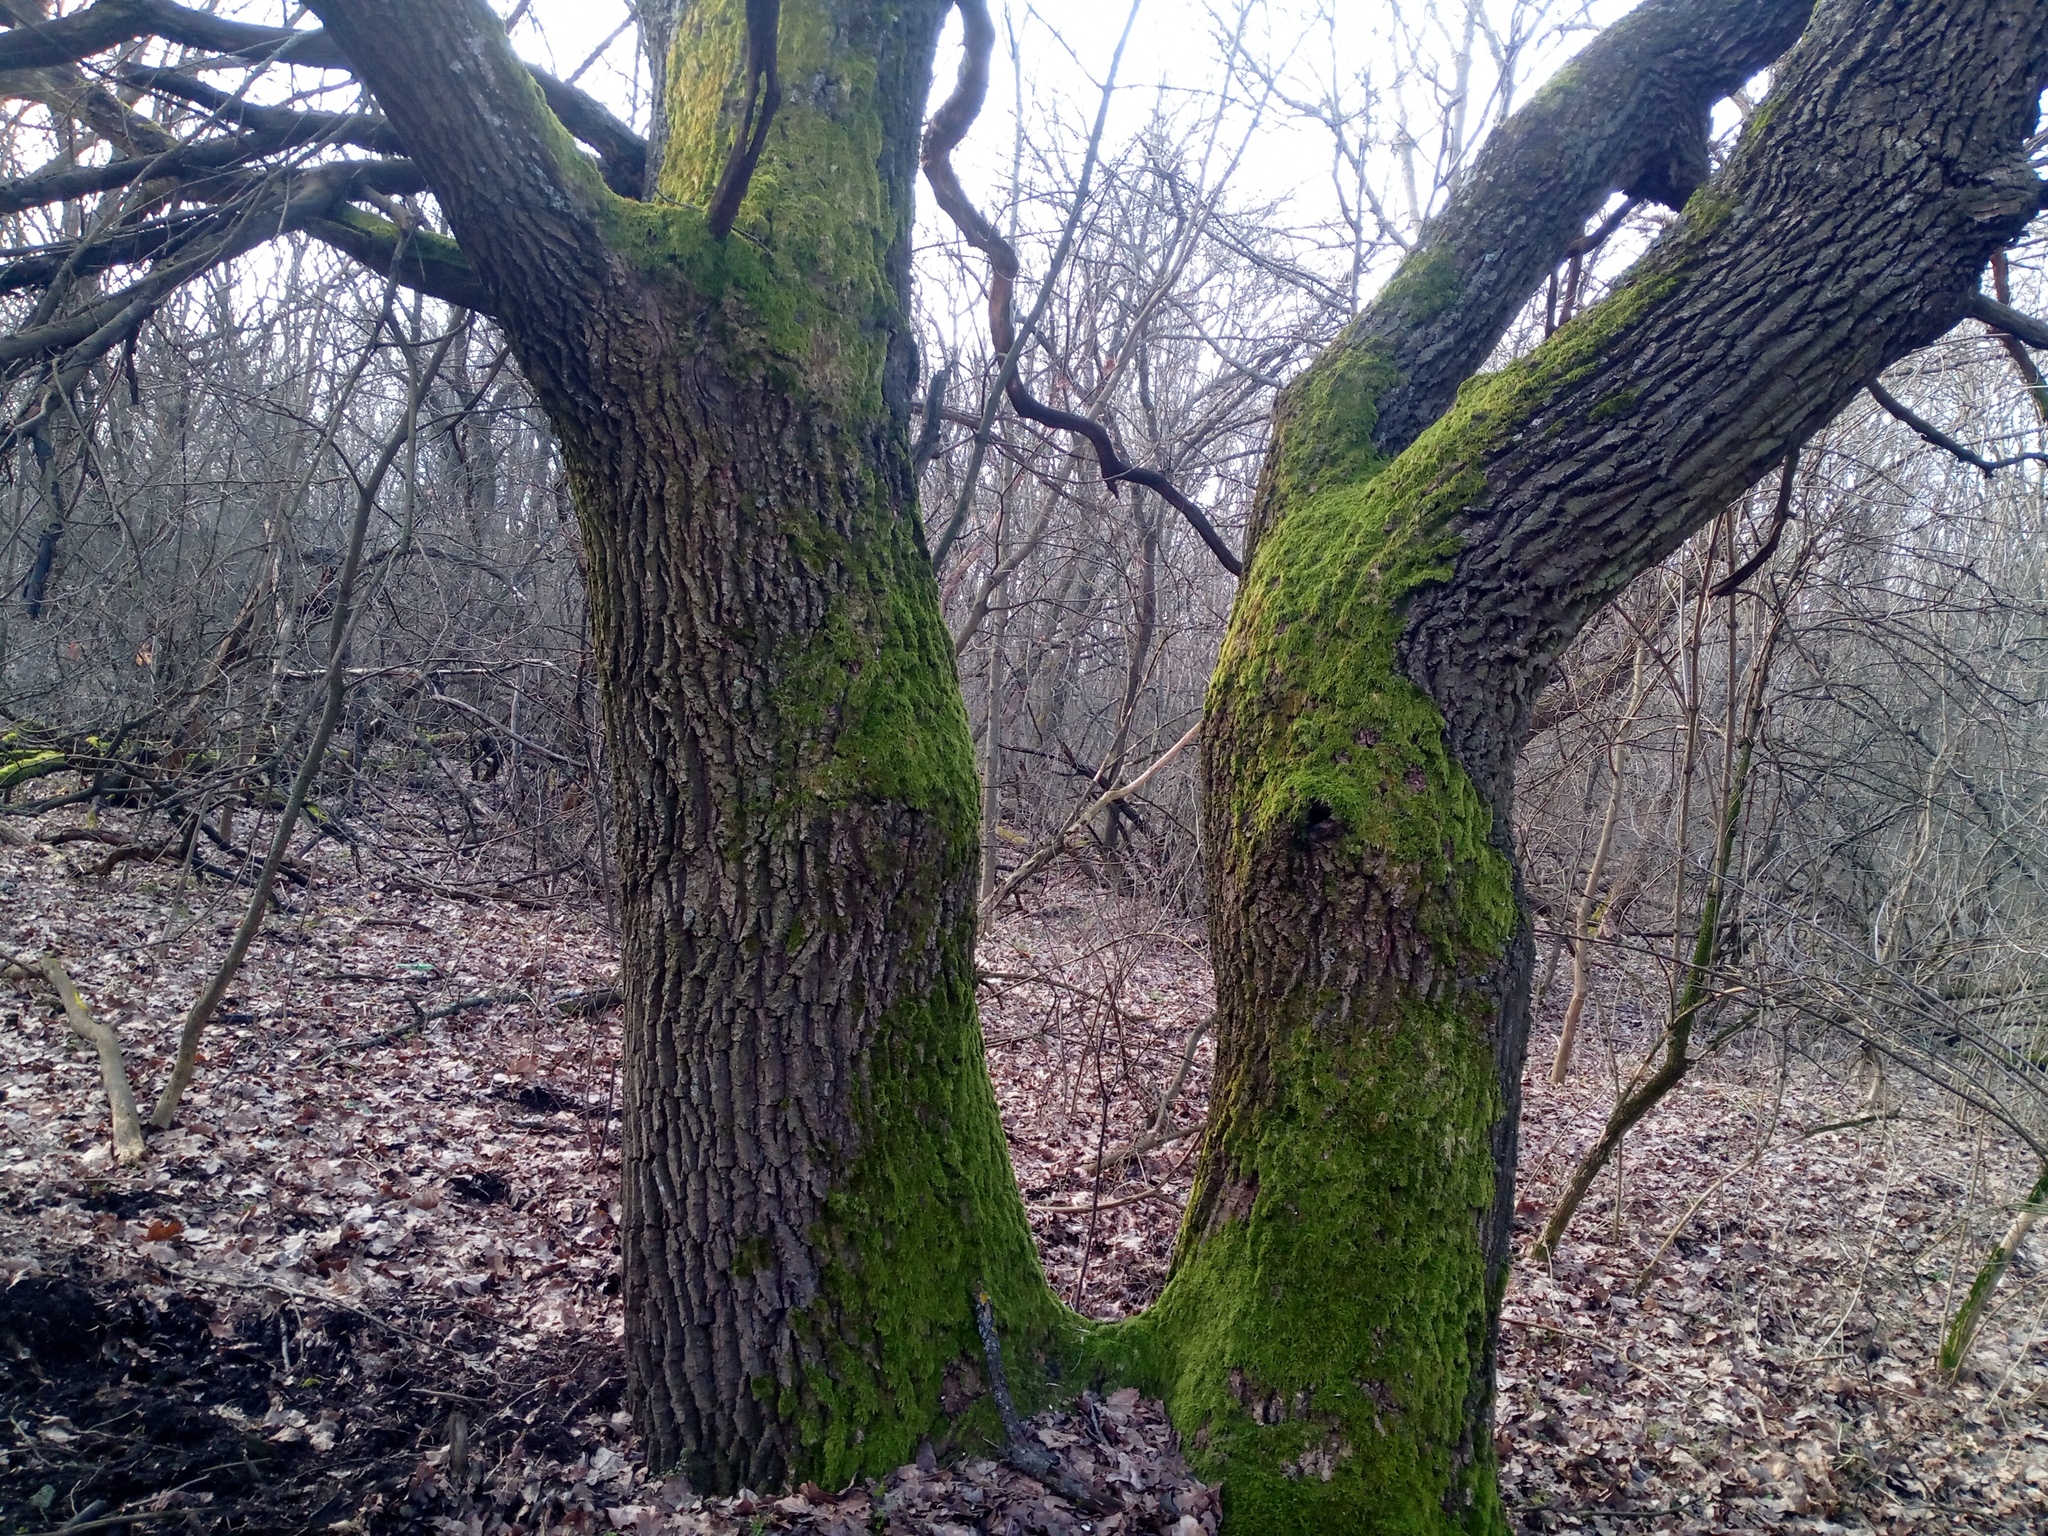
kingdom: Plantae
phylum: Tracheophyta
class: Magnoliopsida
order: Fagales
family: Fagaceae
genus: Quercus
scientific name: Quercus robur
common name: Pedunculate oak
